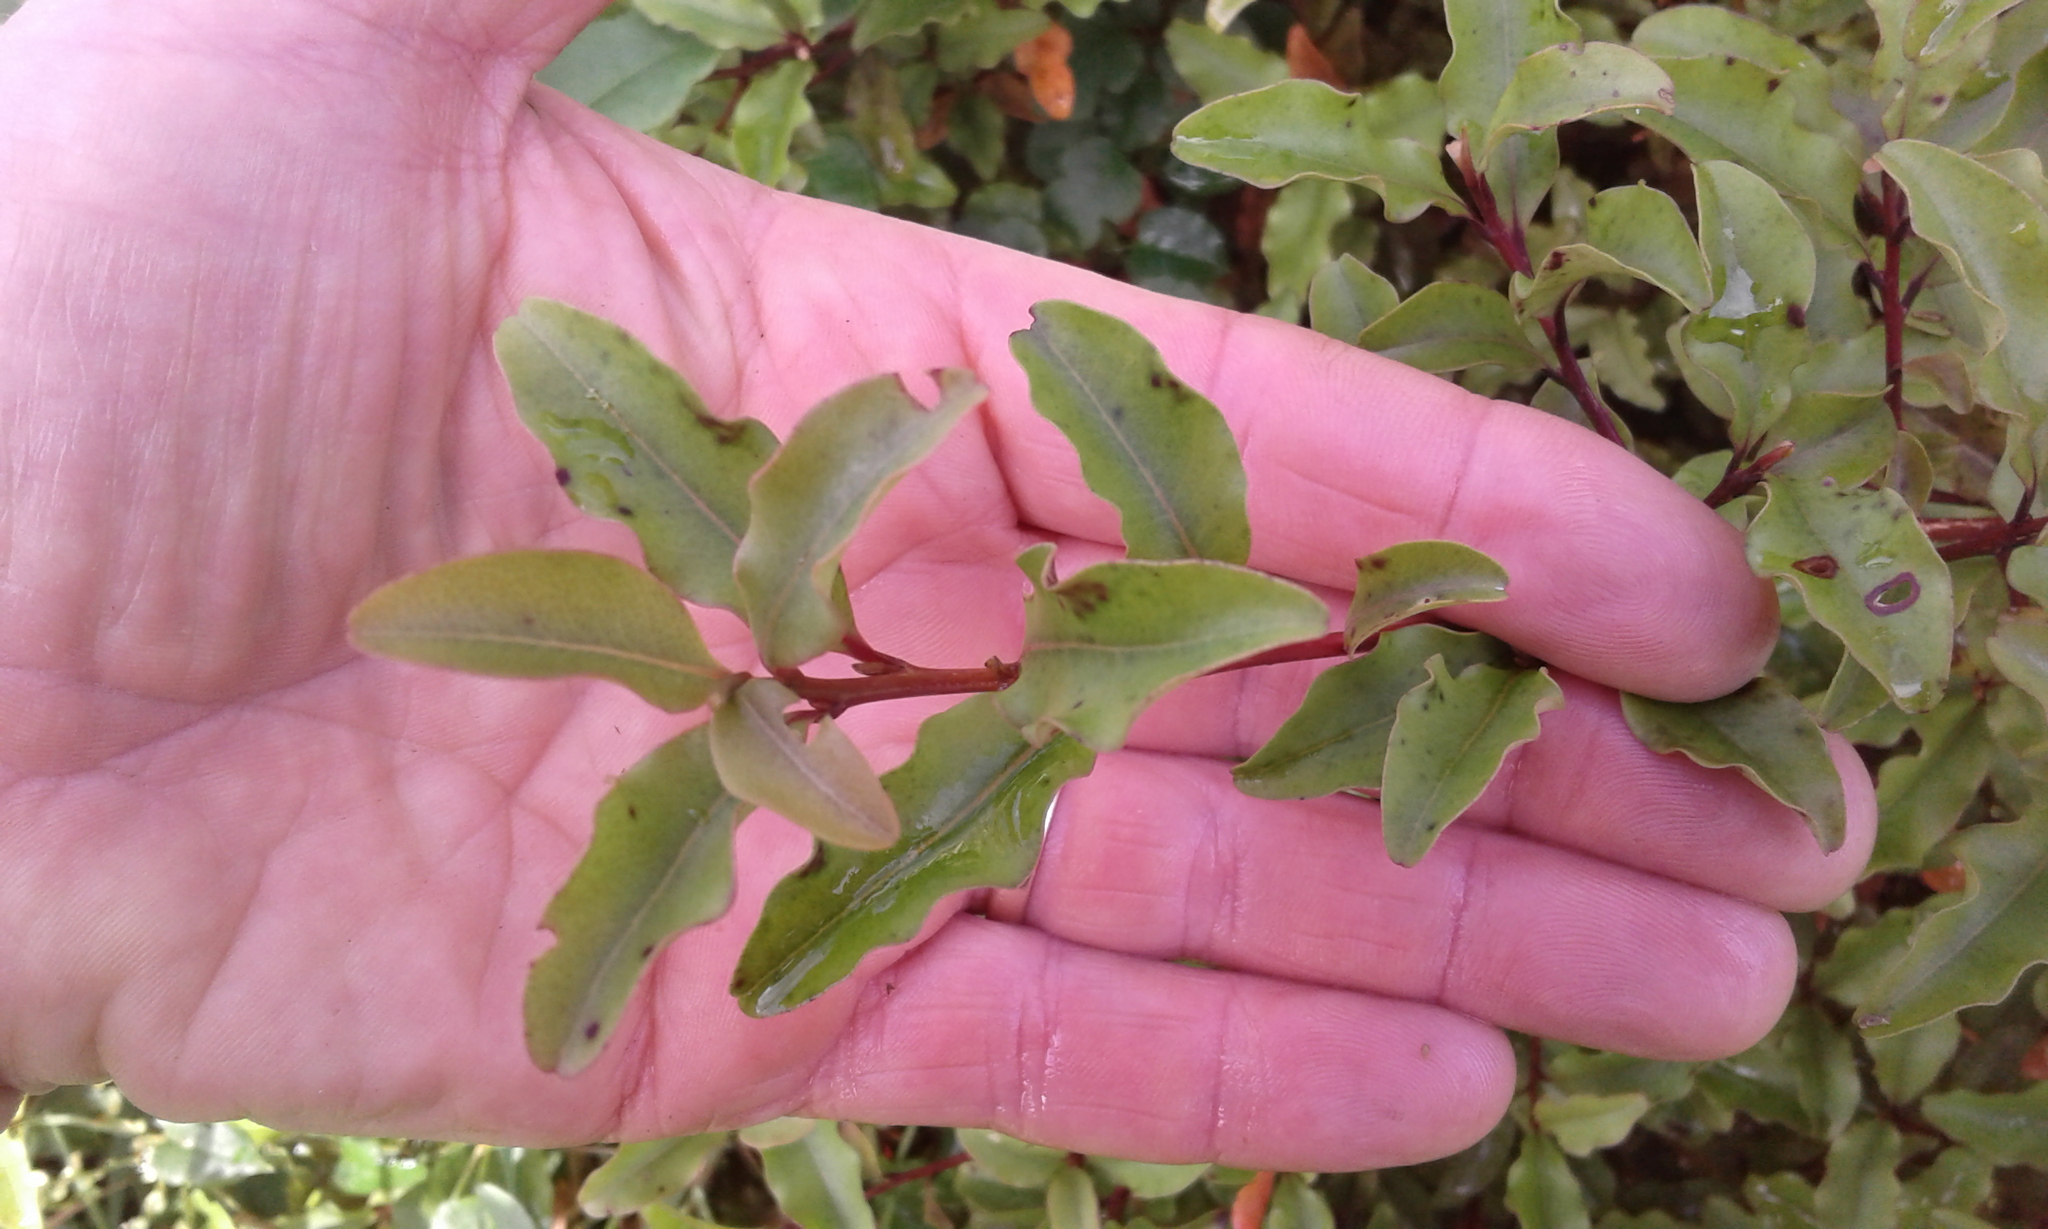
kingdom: Plantae
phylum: Tracheophyta
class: Magnoliopsida
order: Ericales
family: Primulaceae
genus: Myrsine
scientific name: Myrsine australis
